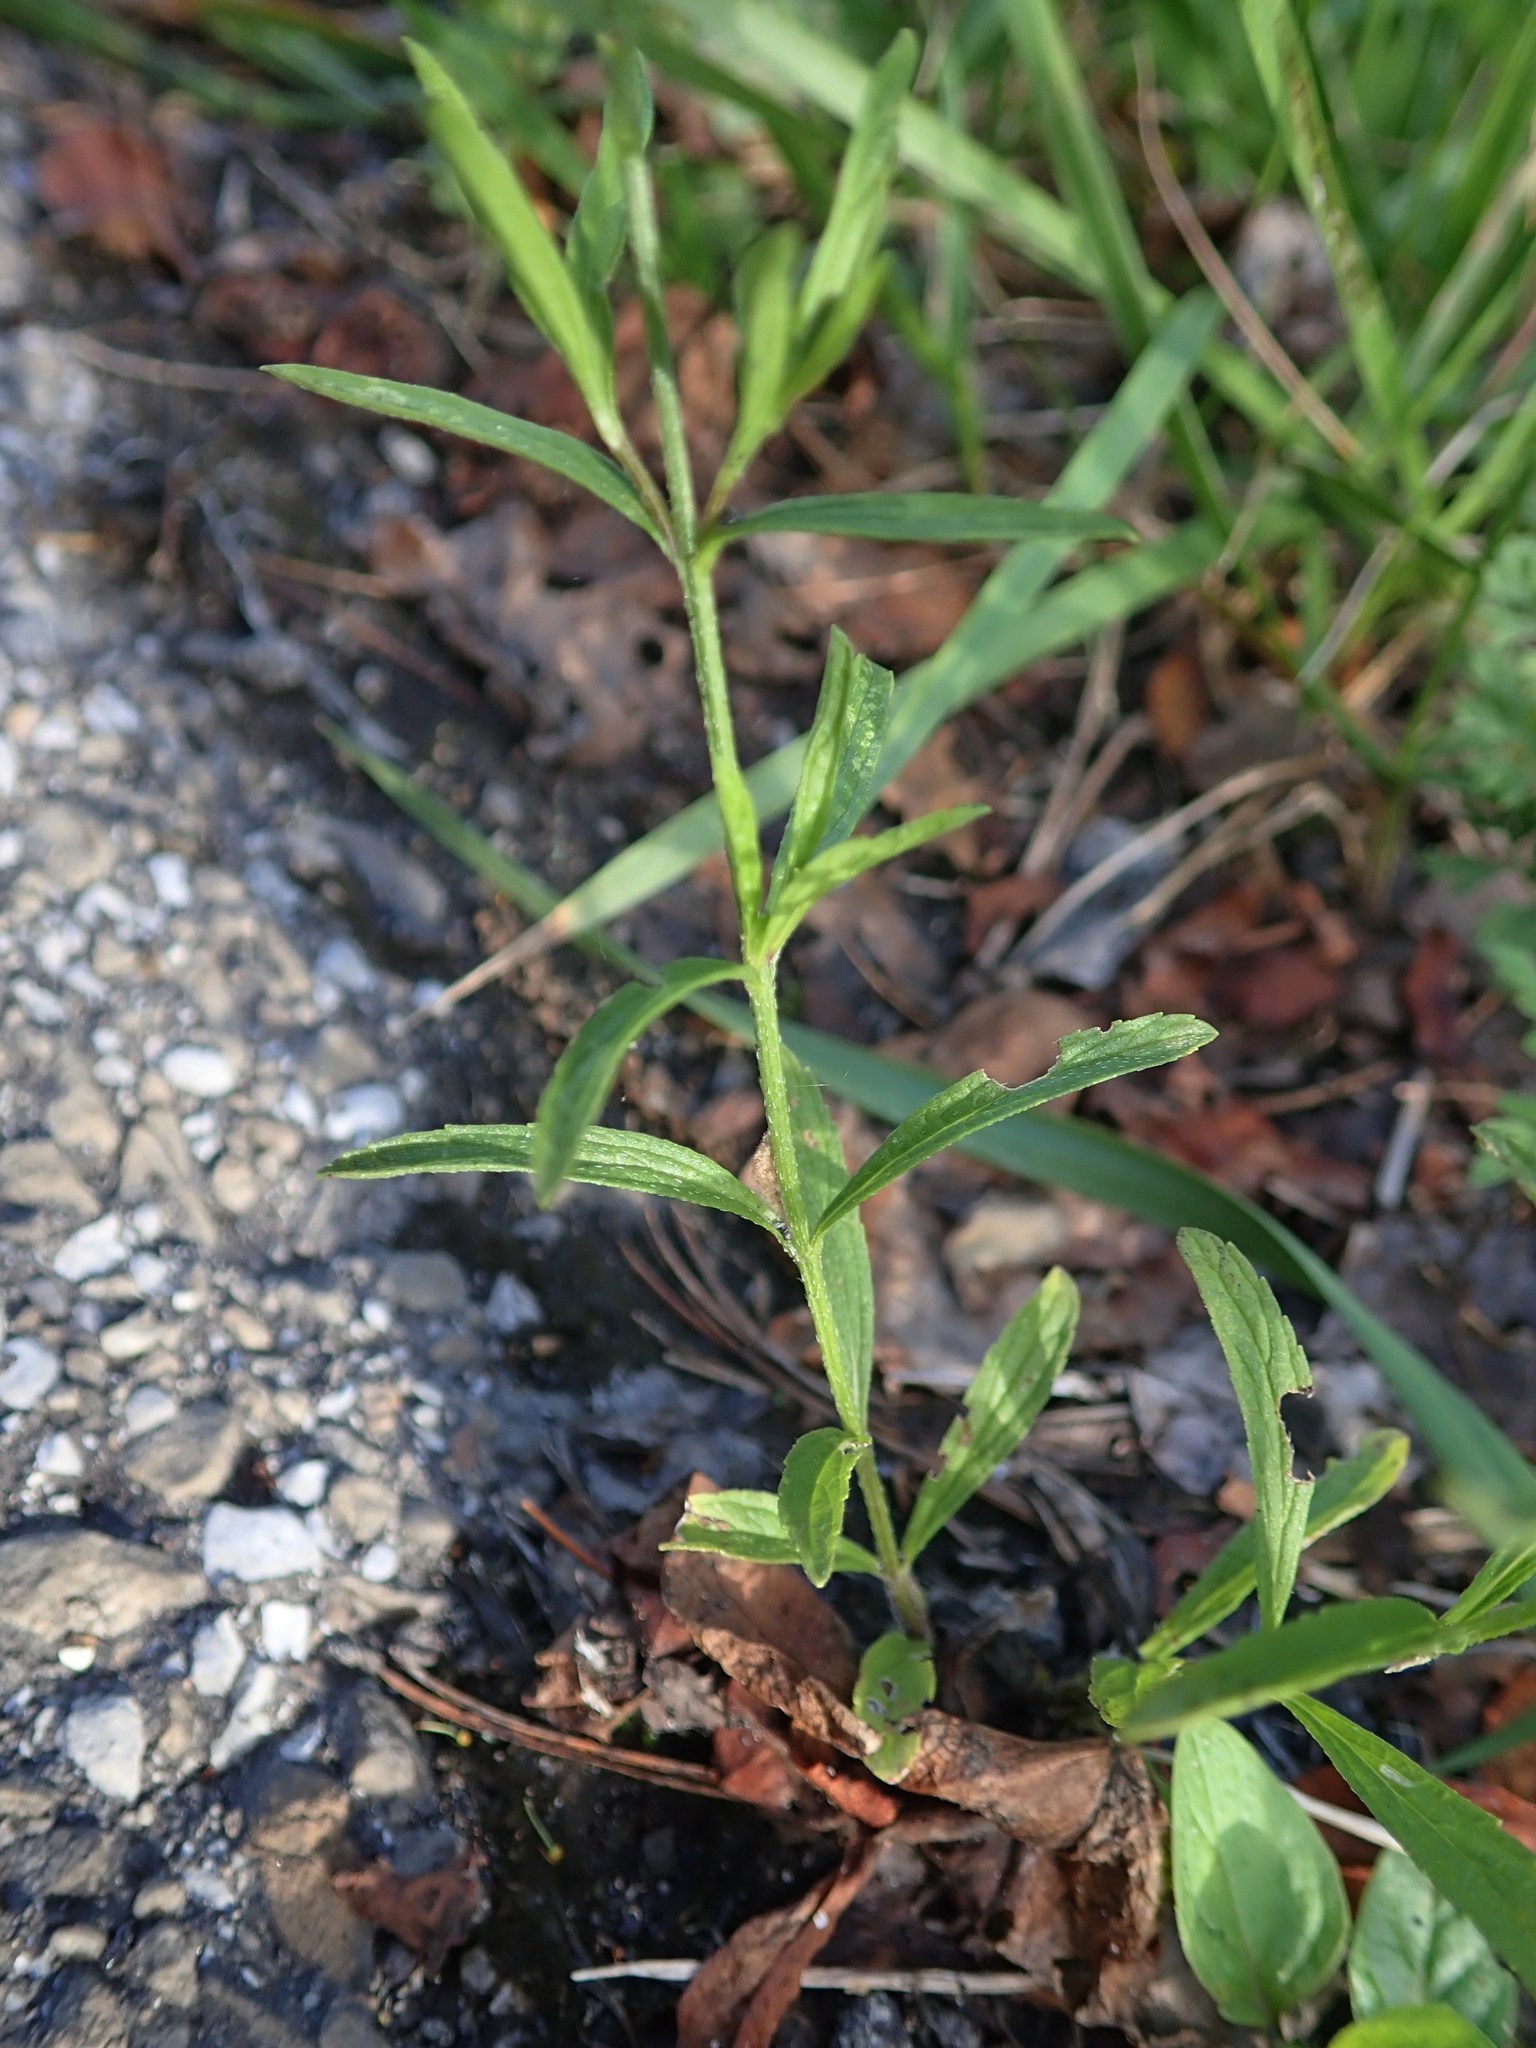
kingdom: Plantae
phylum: Tracheophyta
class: Magnoliopsida
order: Lamiales
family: Verbenaceae
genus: Verbena
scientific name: Verbena simplex
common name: Narrow-leaf vervain
